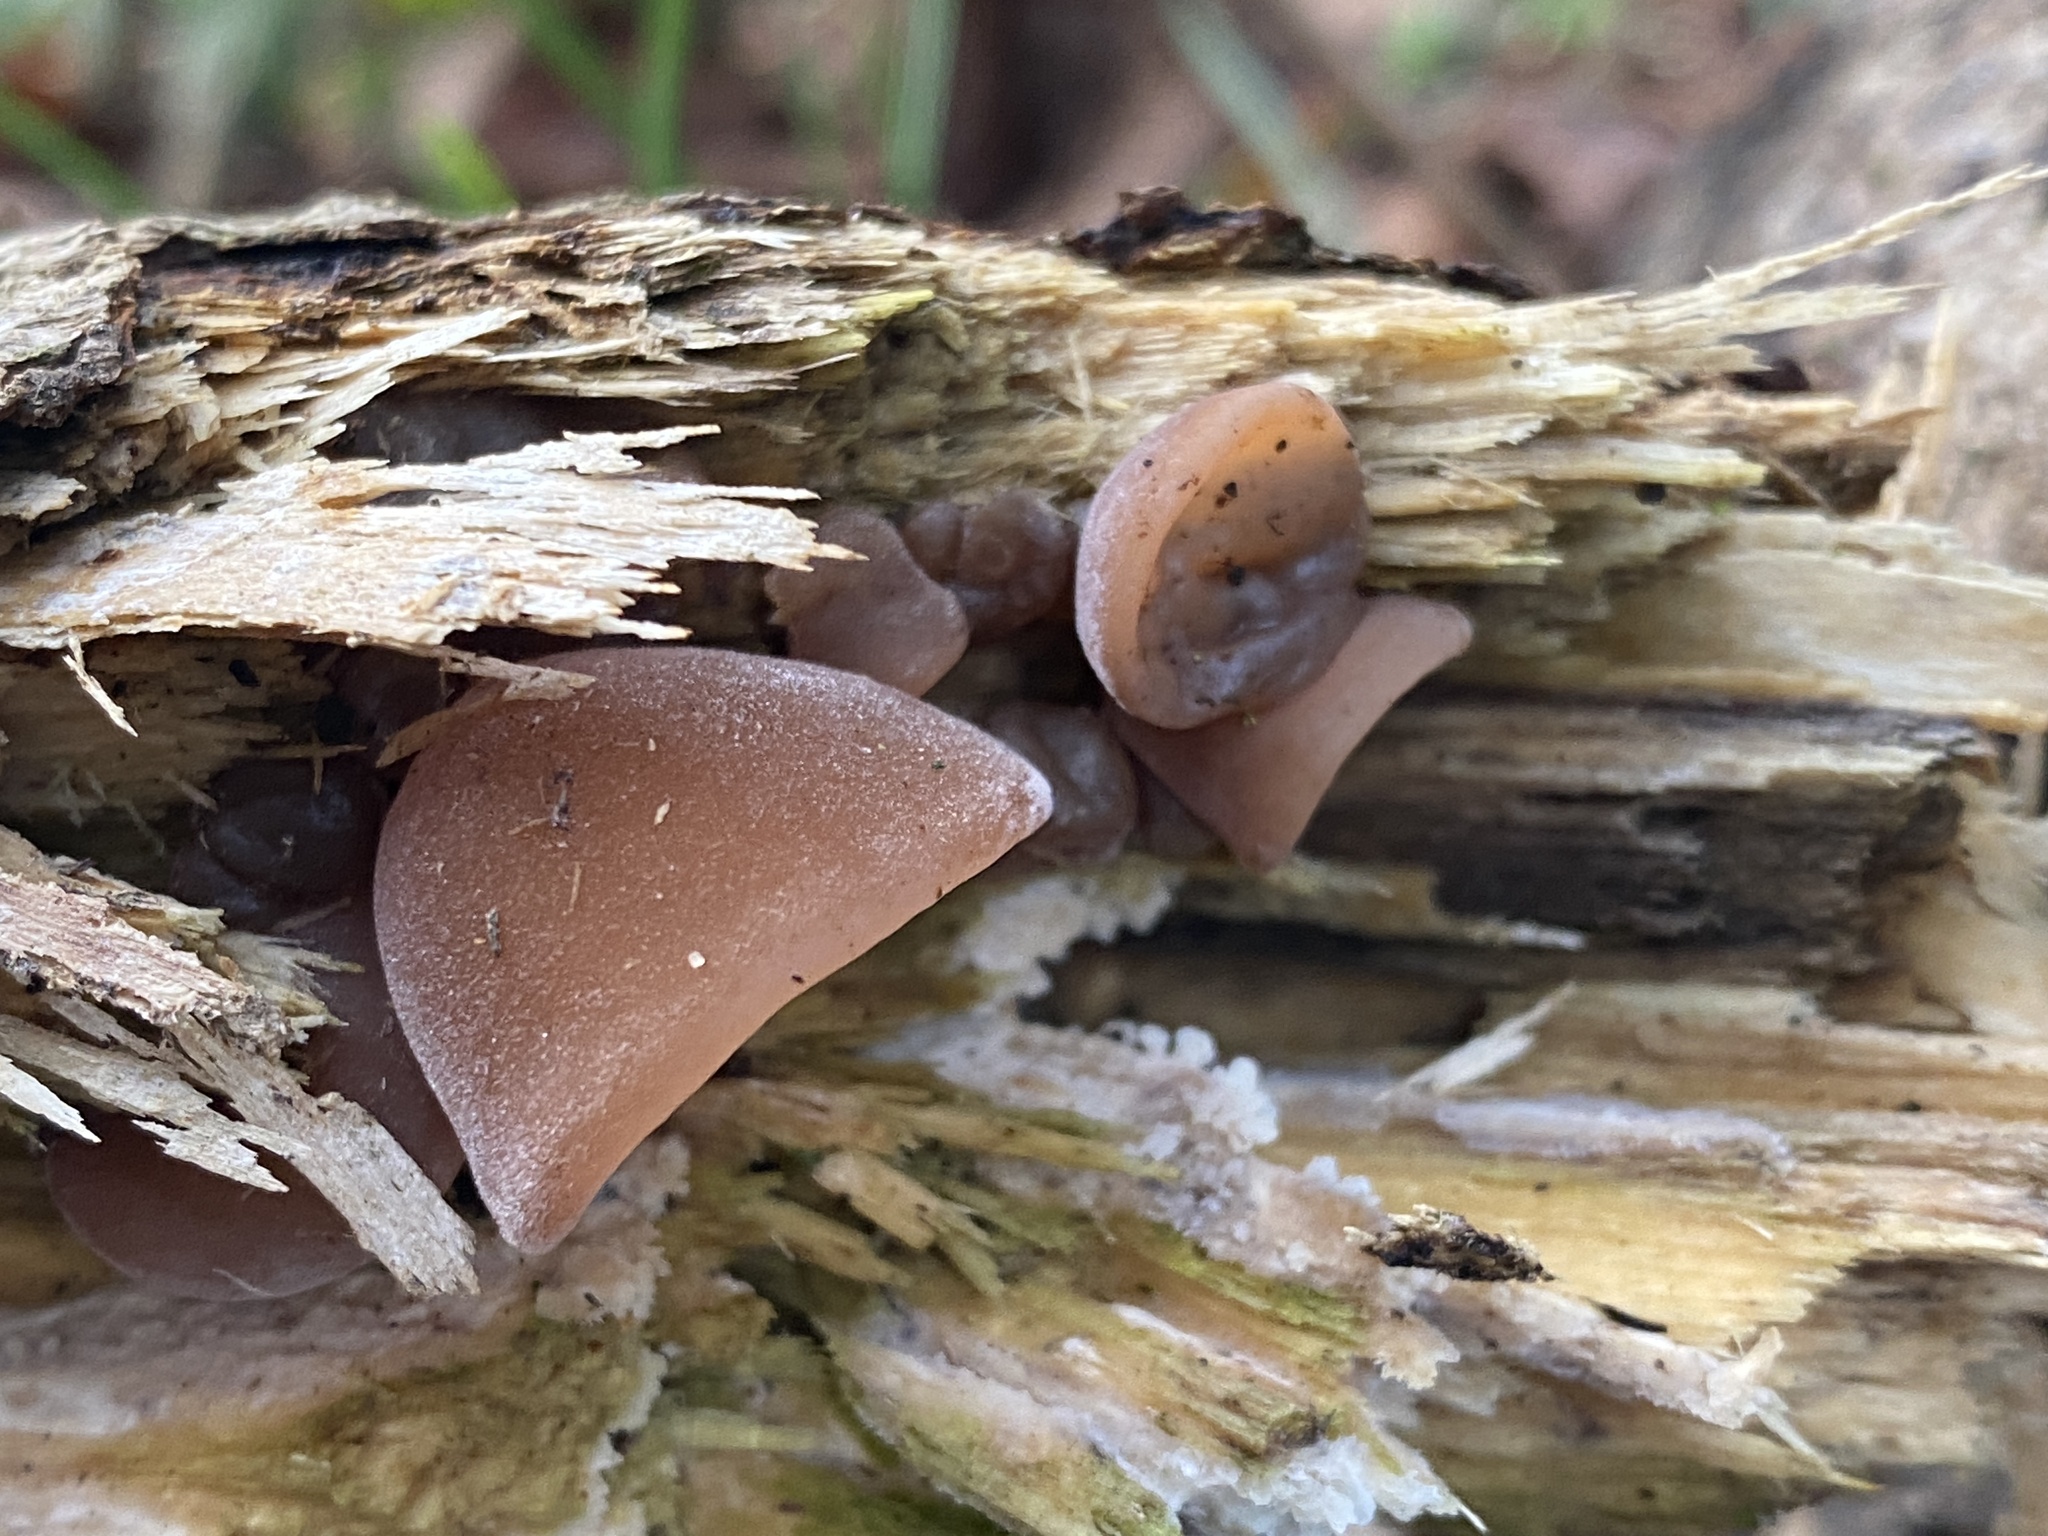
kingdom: Fungi
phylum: Basidiomycota
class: Agaricomycetes
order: Auriculariales
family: Auriculariaceae
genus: Auricularia
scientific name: Auricularia auricula-judae
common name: Jelly ear
